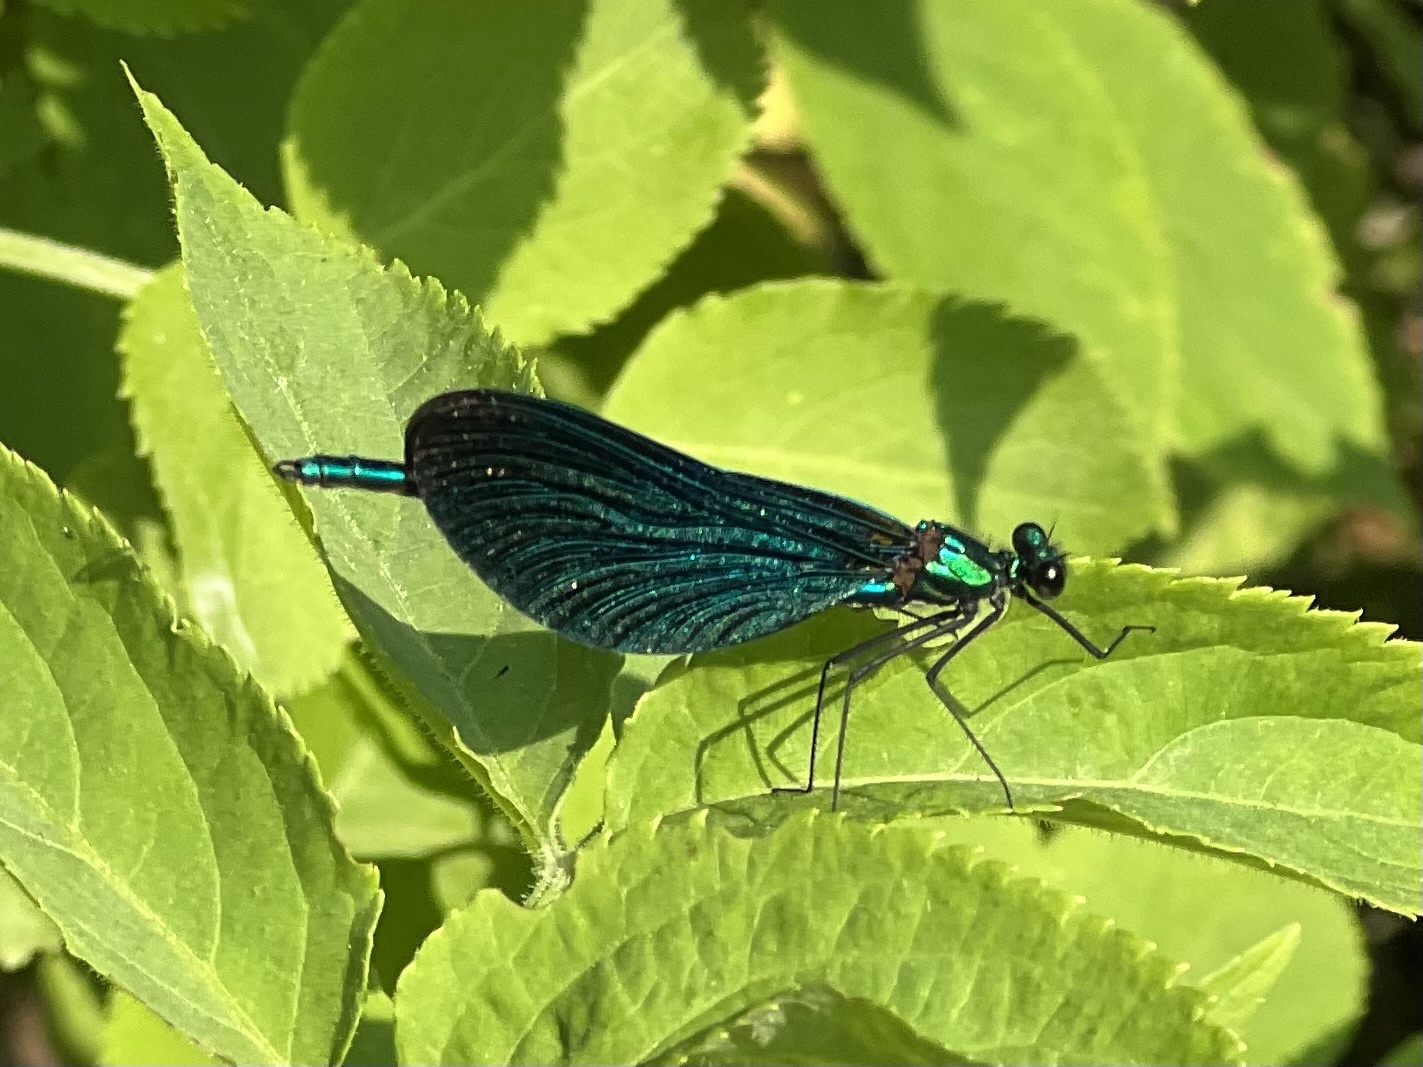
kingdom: Animalia
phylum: Arthropoda
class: Insecta
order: Odonata
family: Calopterygidae
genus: Calopteryx
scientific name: Calopteryx virgo
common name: Beautiful demoiselle
